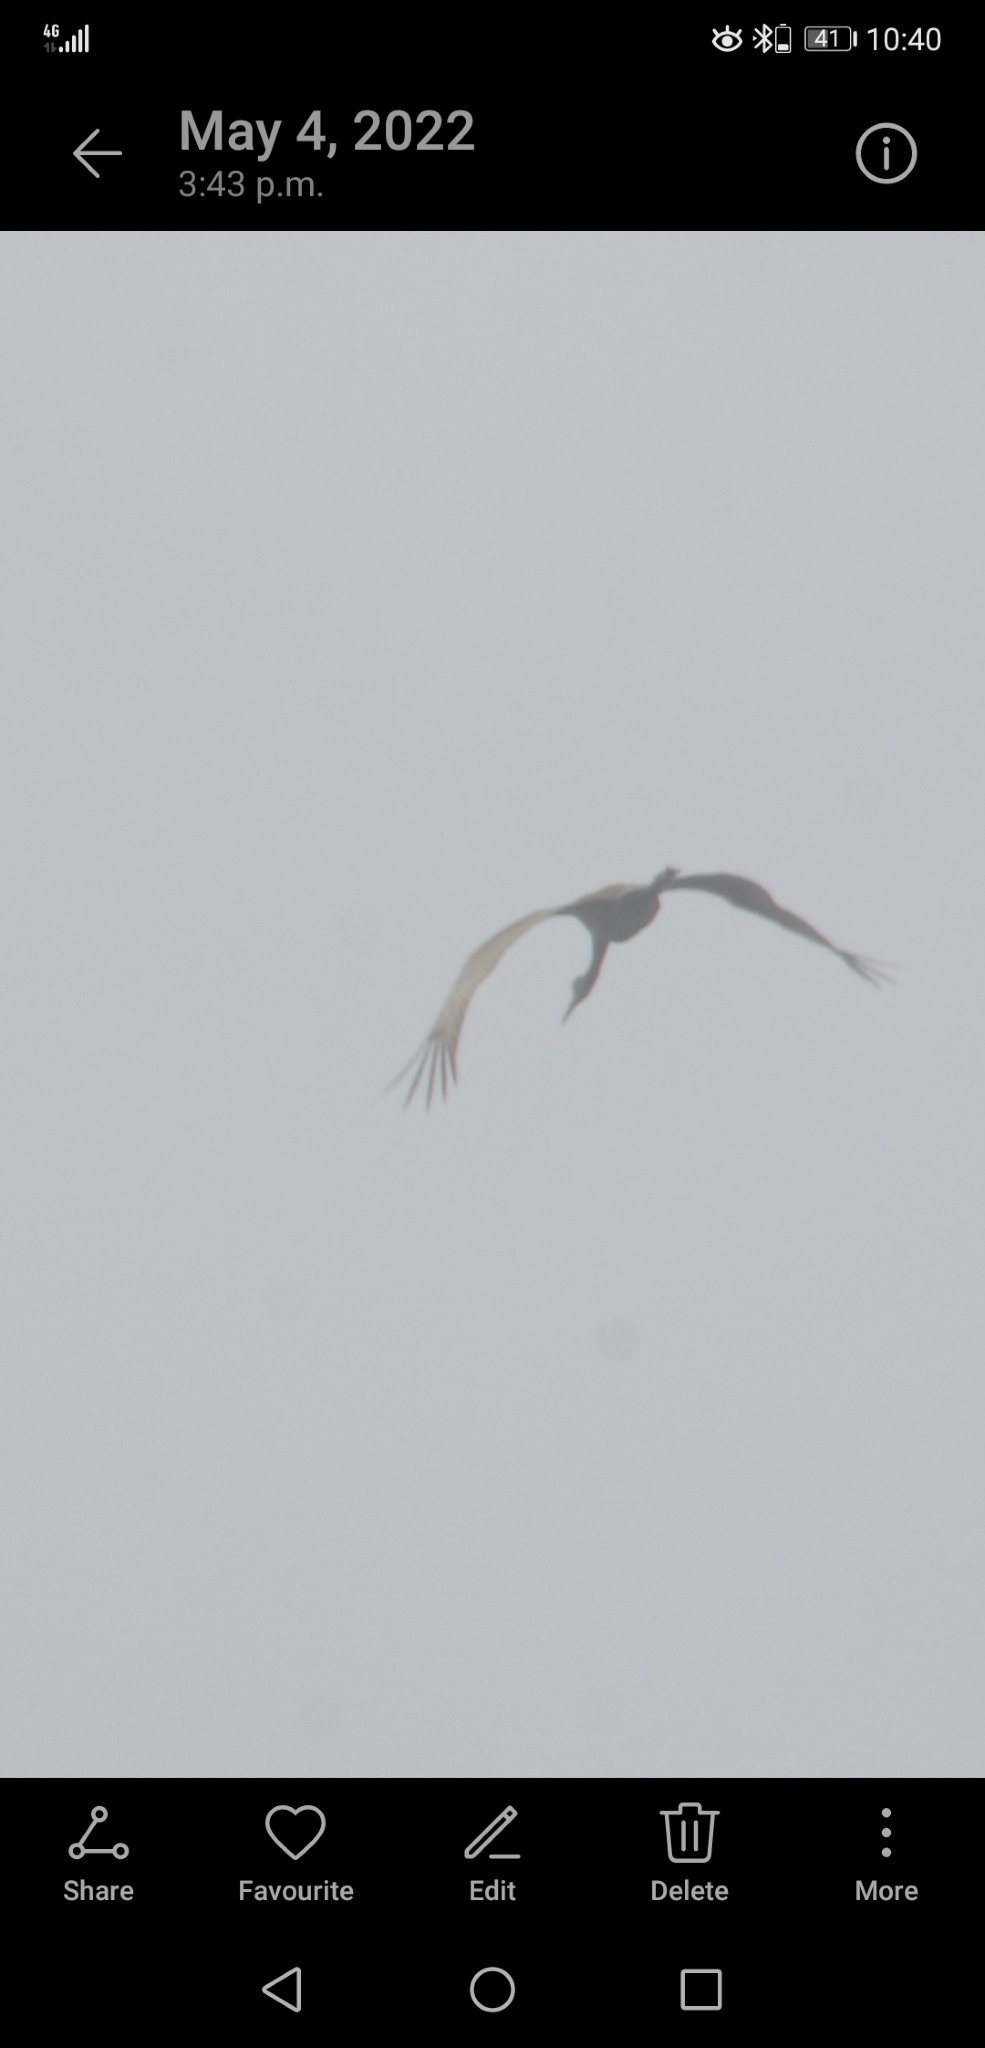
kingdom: Animalia
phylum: Chordata
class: Aves
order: Gruiformes
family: Gruidae
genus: Grus
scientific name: Grus canadensis
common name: Sandhill crane
